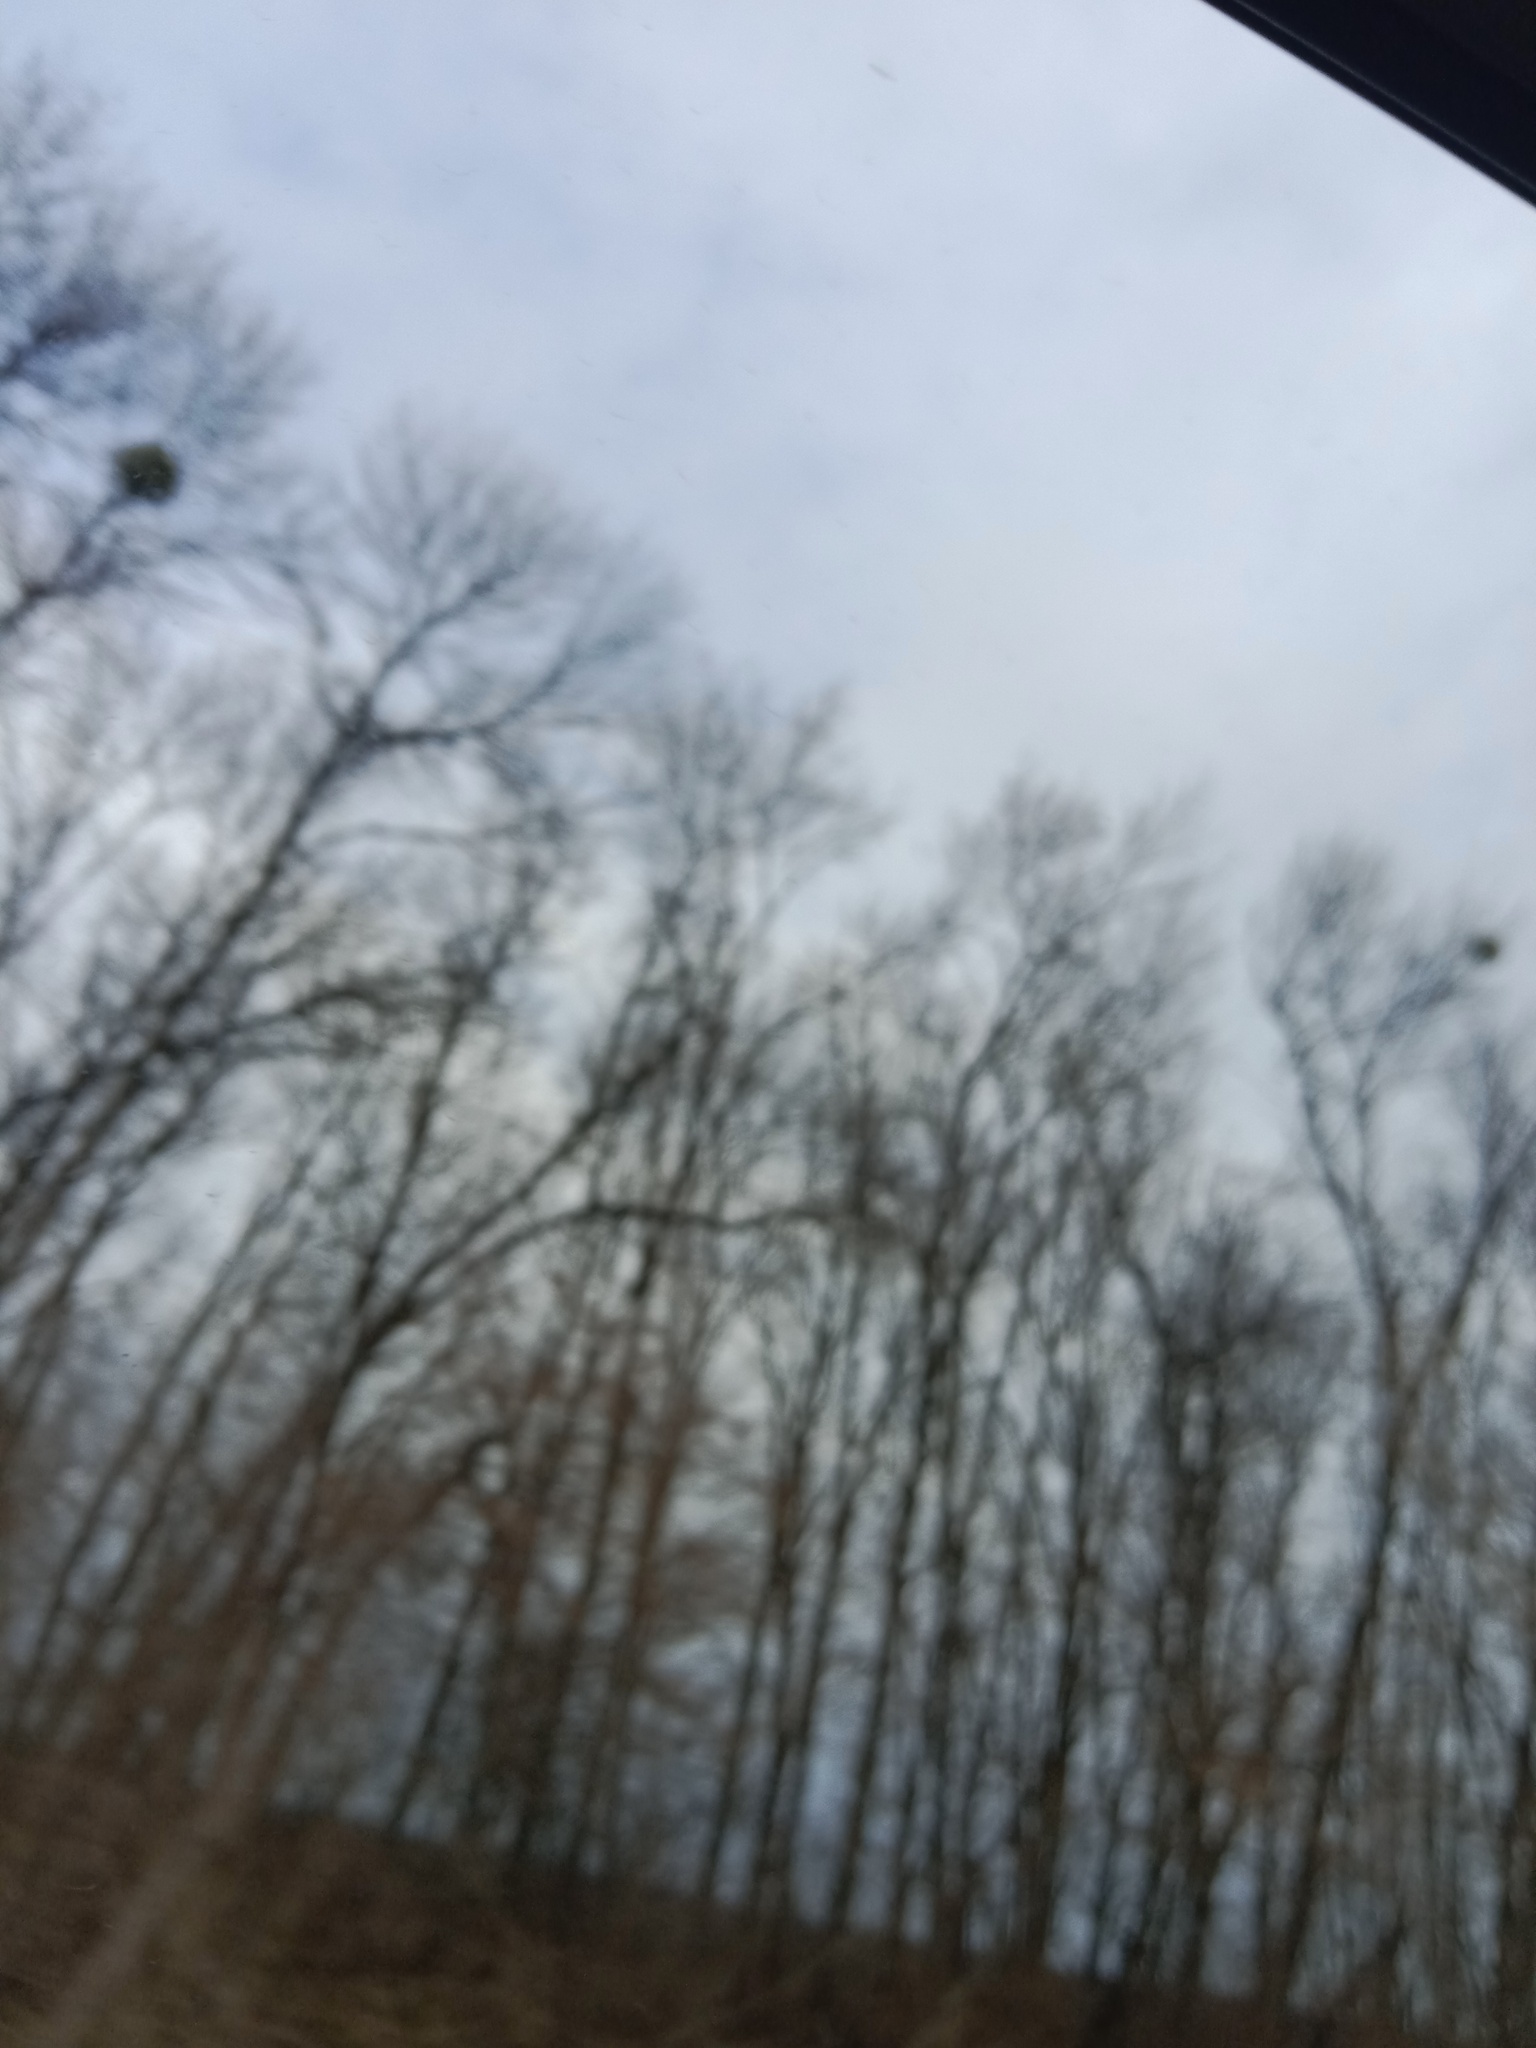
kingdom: Plantae
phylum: Tracheophyta
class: Magnoliopsida
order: Santalales
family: Viscaceae
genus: Viscum
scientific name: Viscum album
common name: Mistletoe
